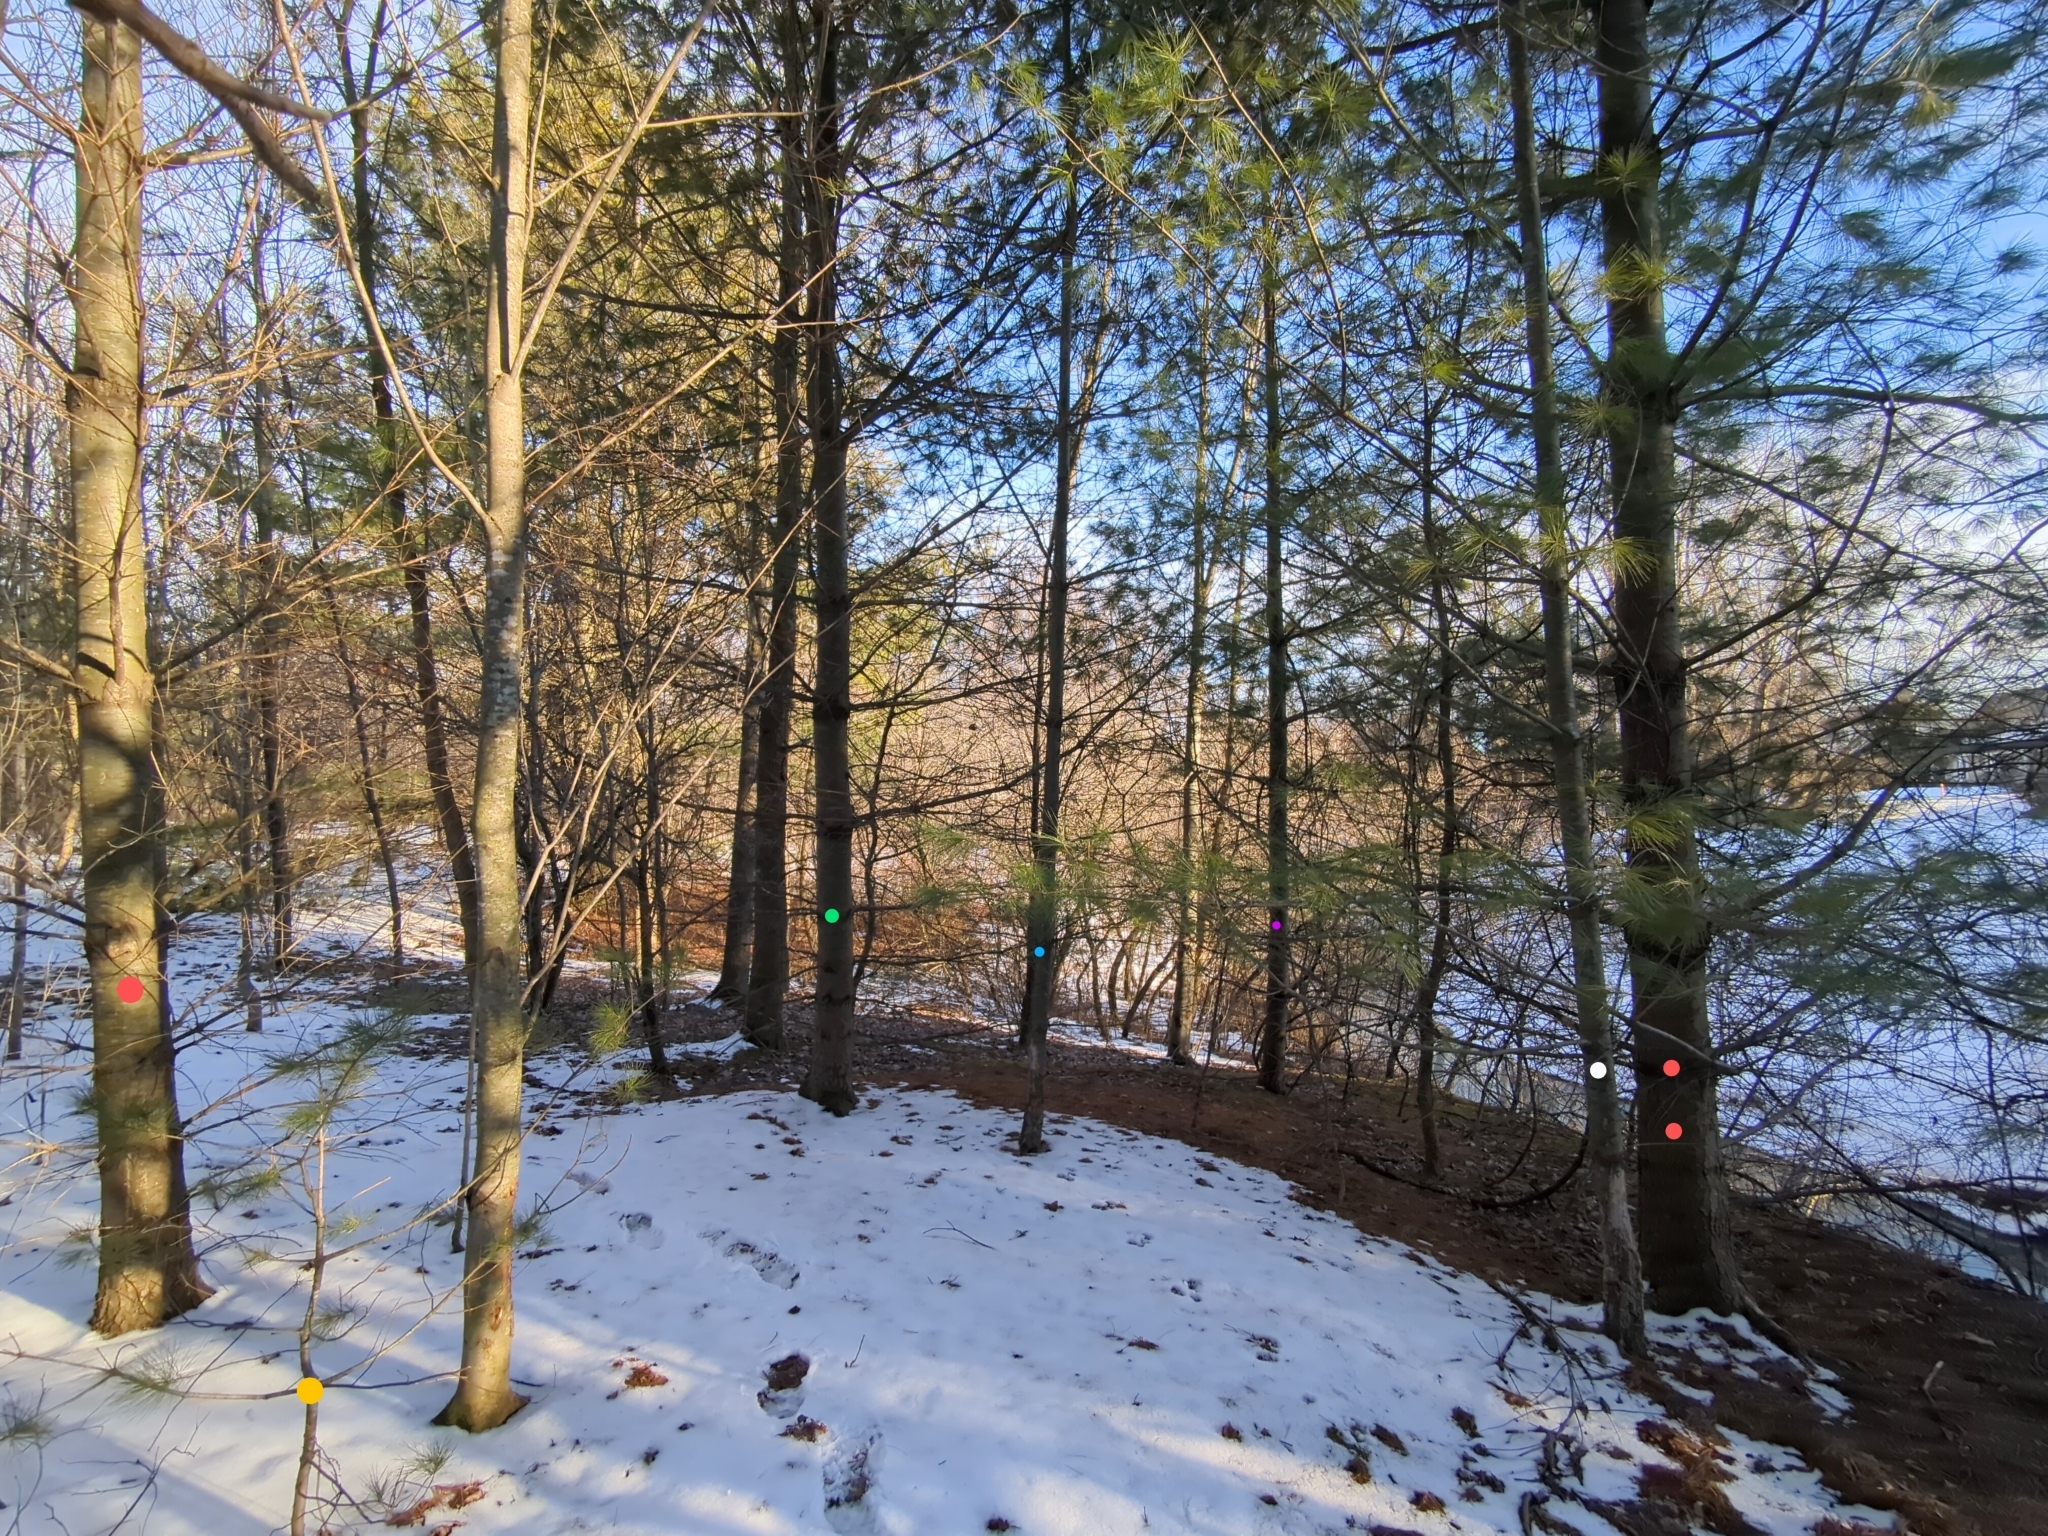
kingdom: Plantae
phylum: Tracheophyta
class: Pinopsida
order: Pinales
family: Pinaceae
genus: Pinus
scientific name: Pinus strobus
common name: Weymouth pine
